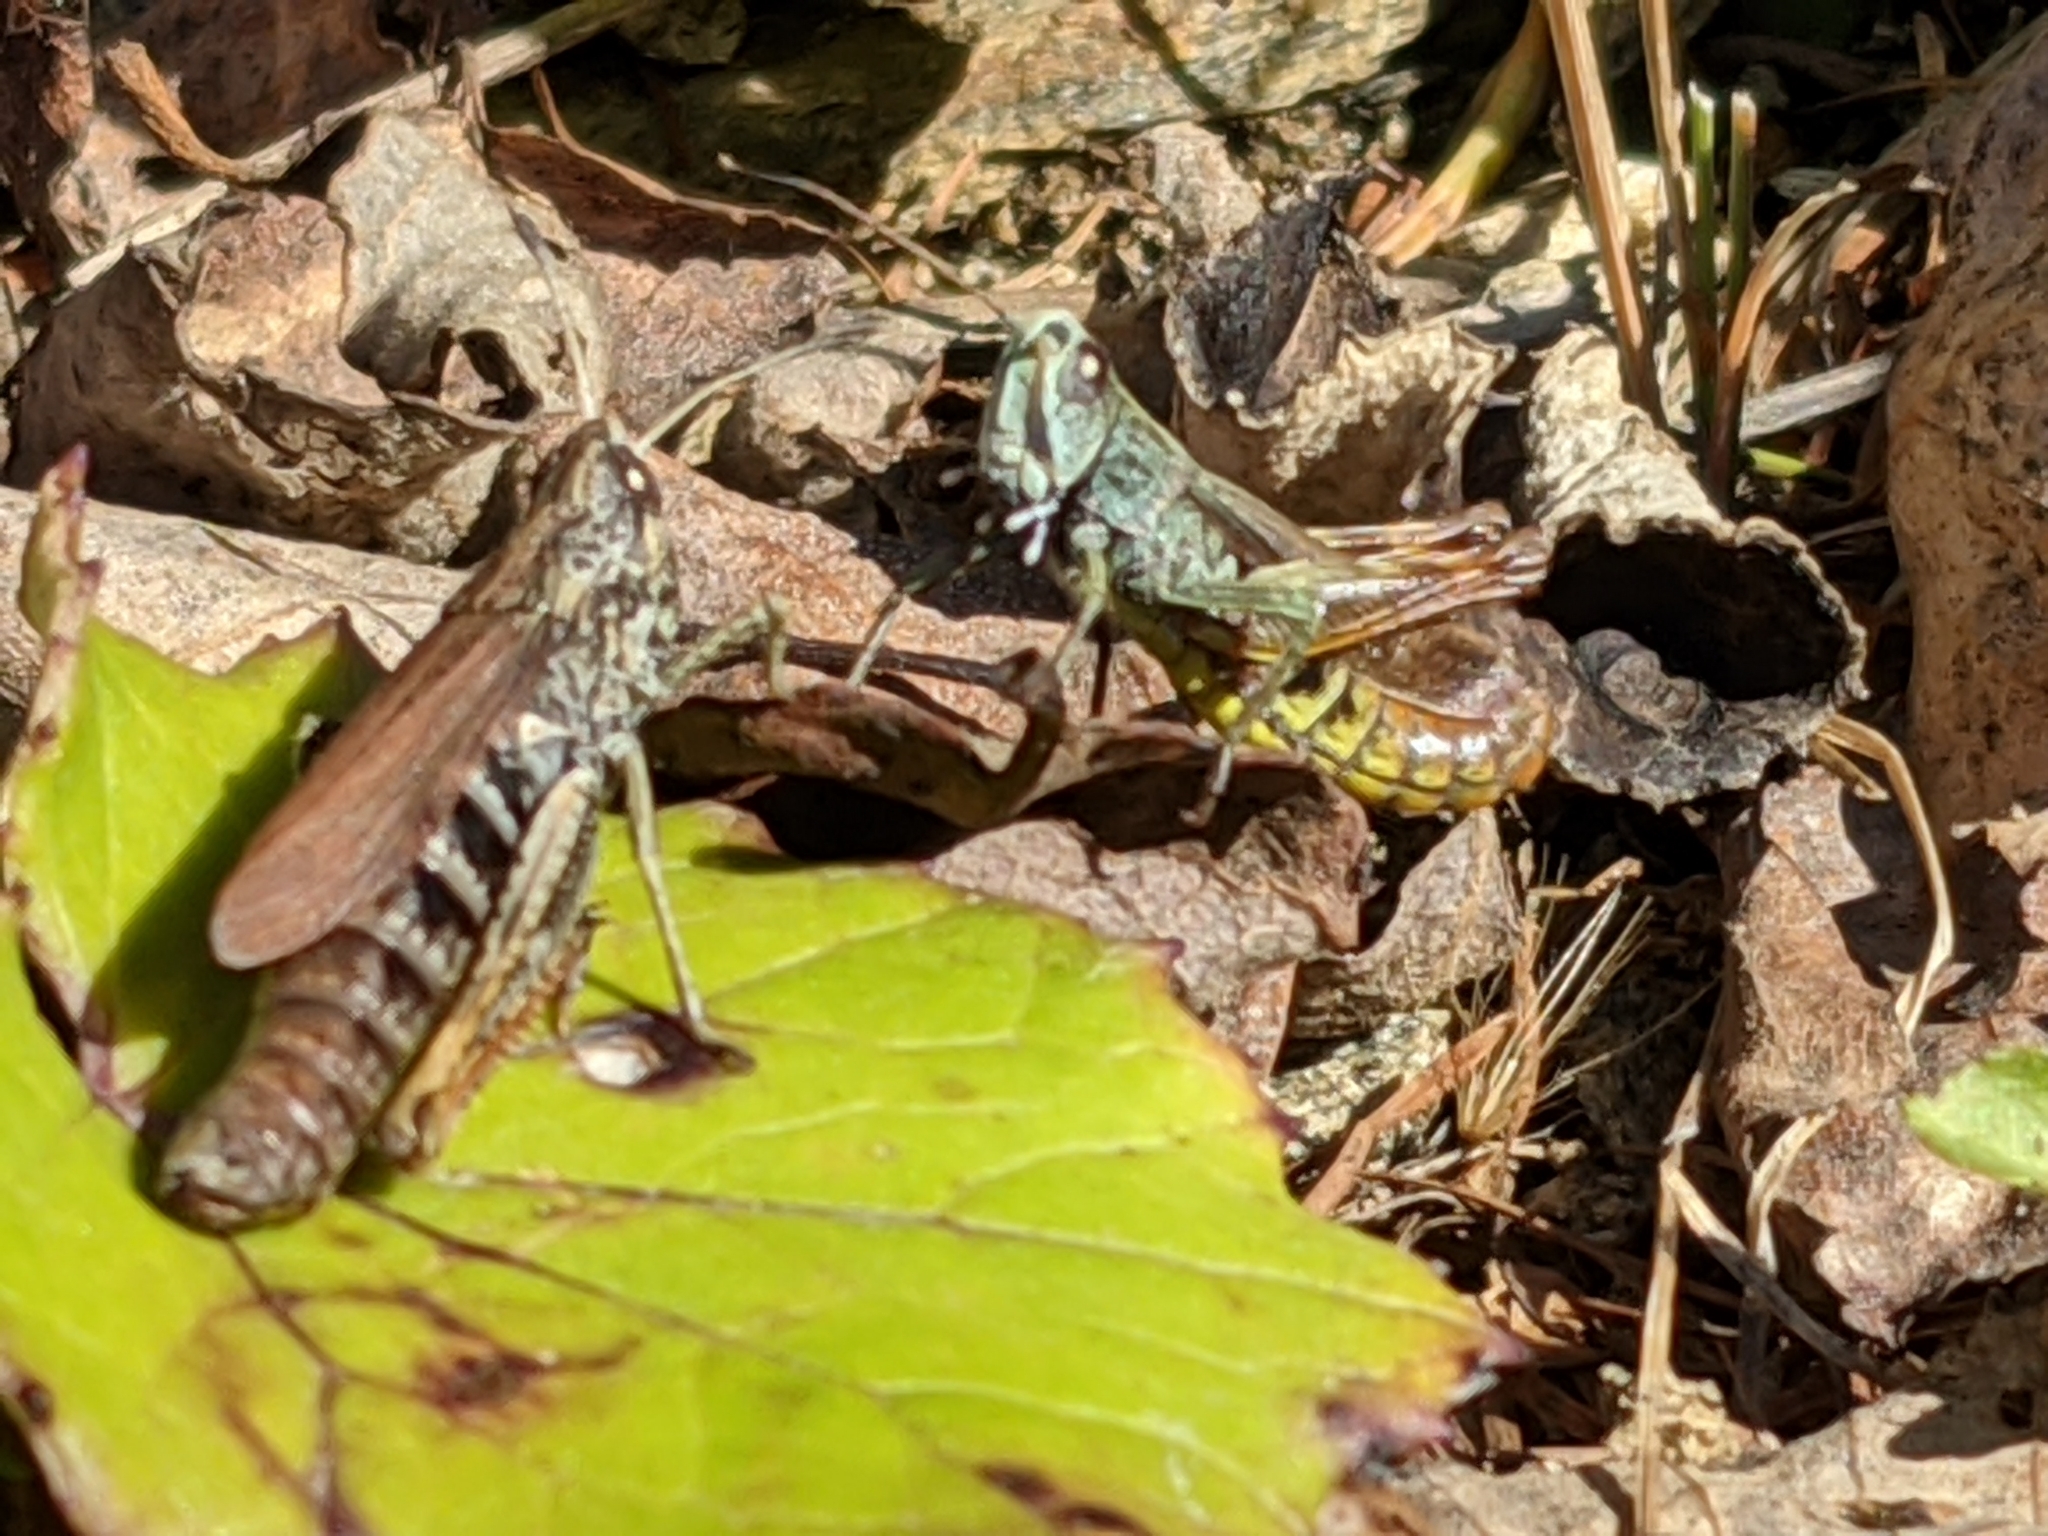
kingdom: Animalia
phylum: Arthropoda
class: Insecta
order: Orthoptera
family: Acrididae
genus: Gomphocerippus
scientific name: Gomphocerippus rufus
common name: Rufous grasshopper
